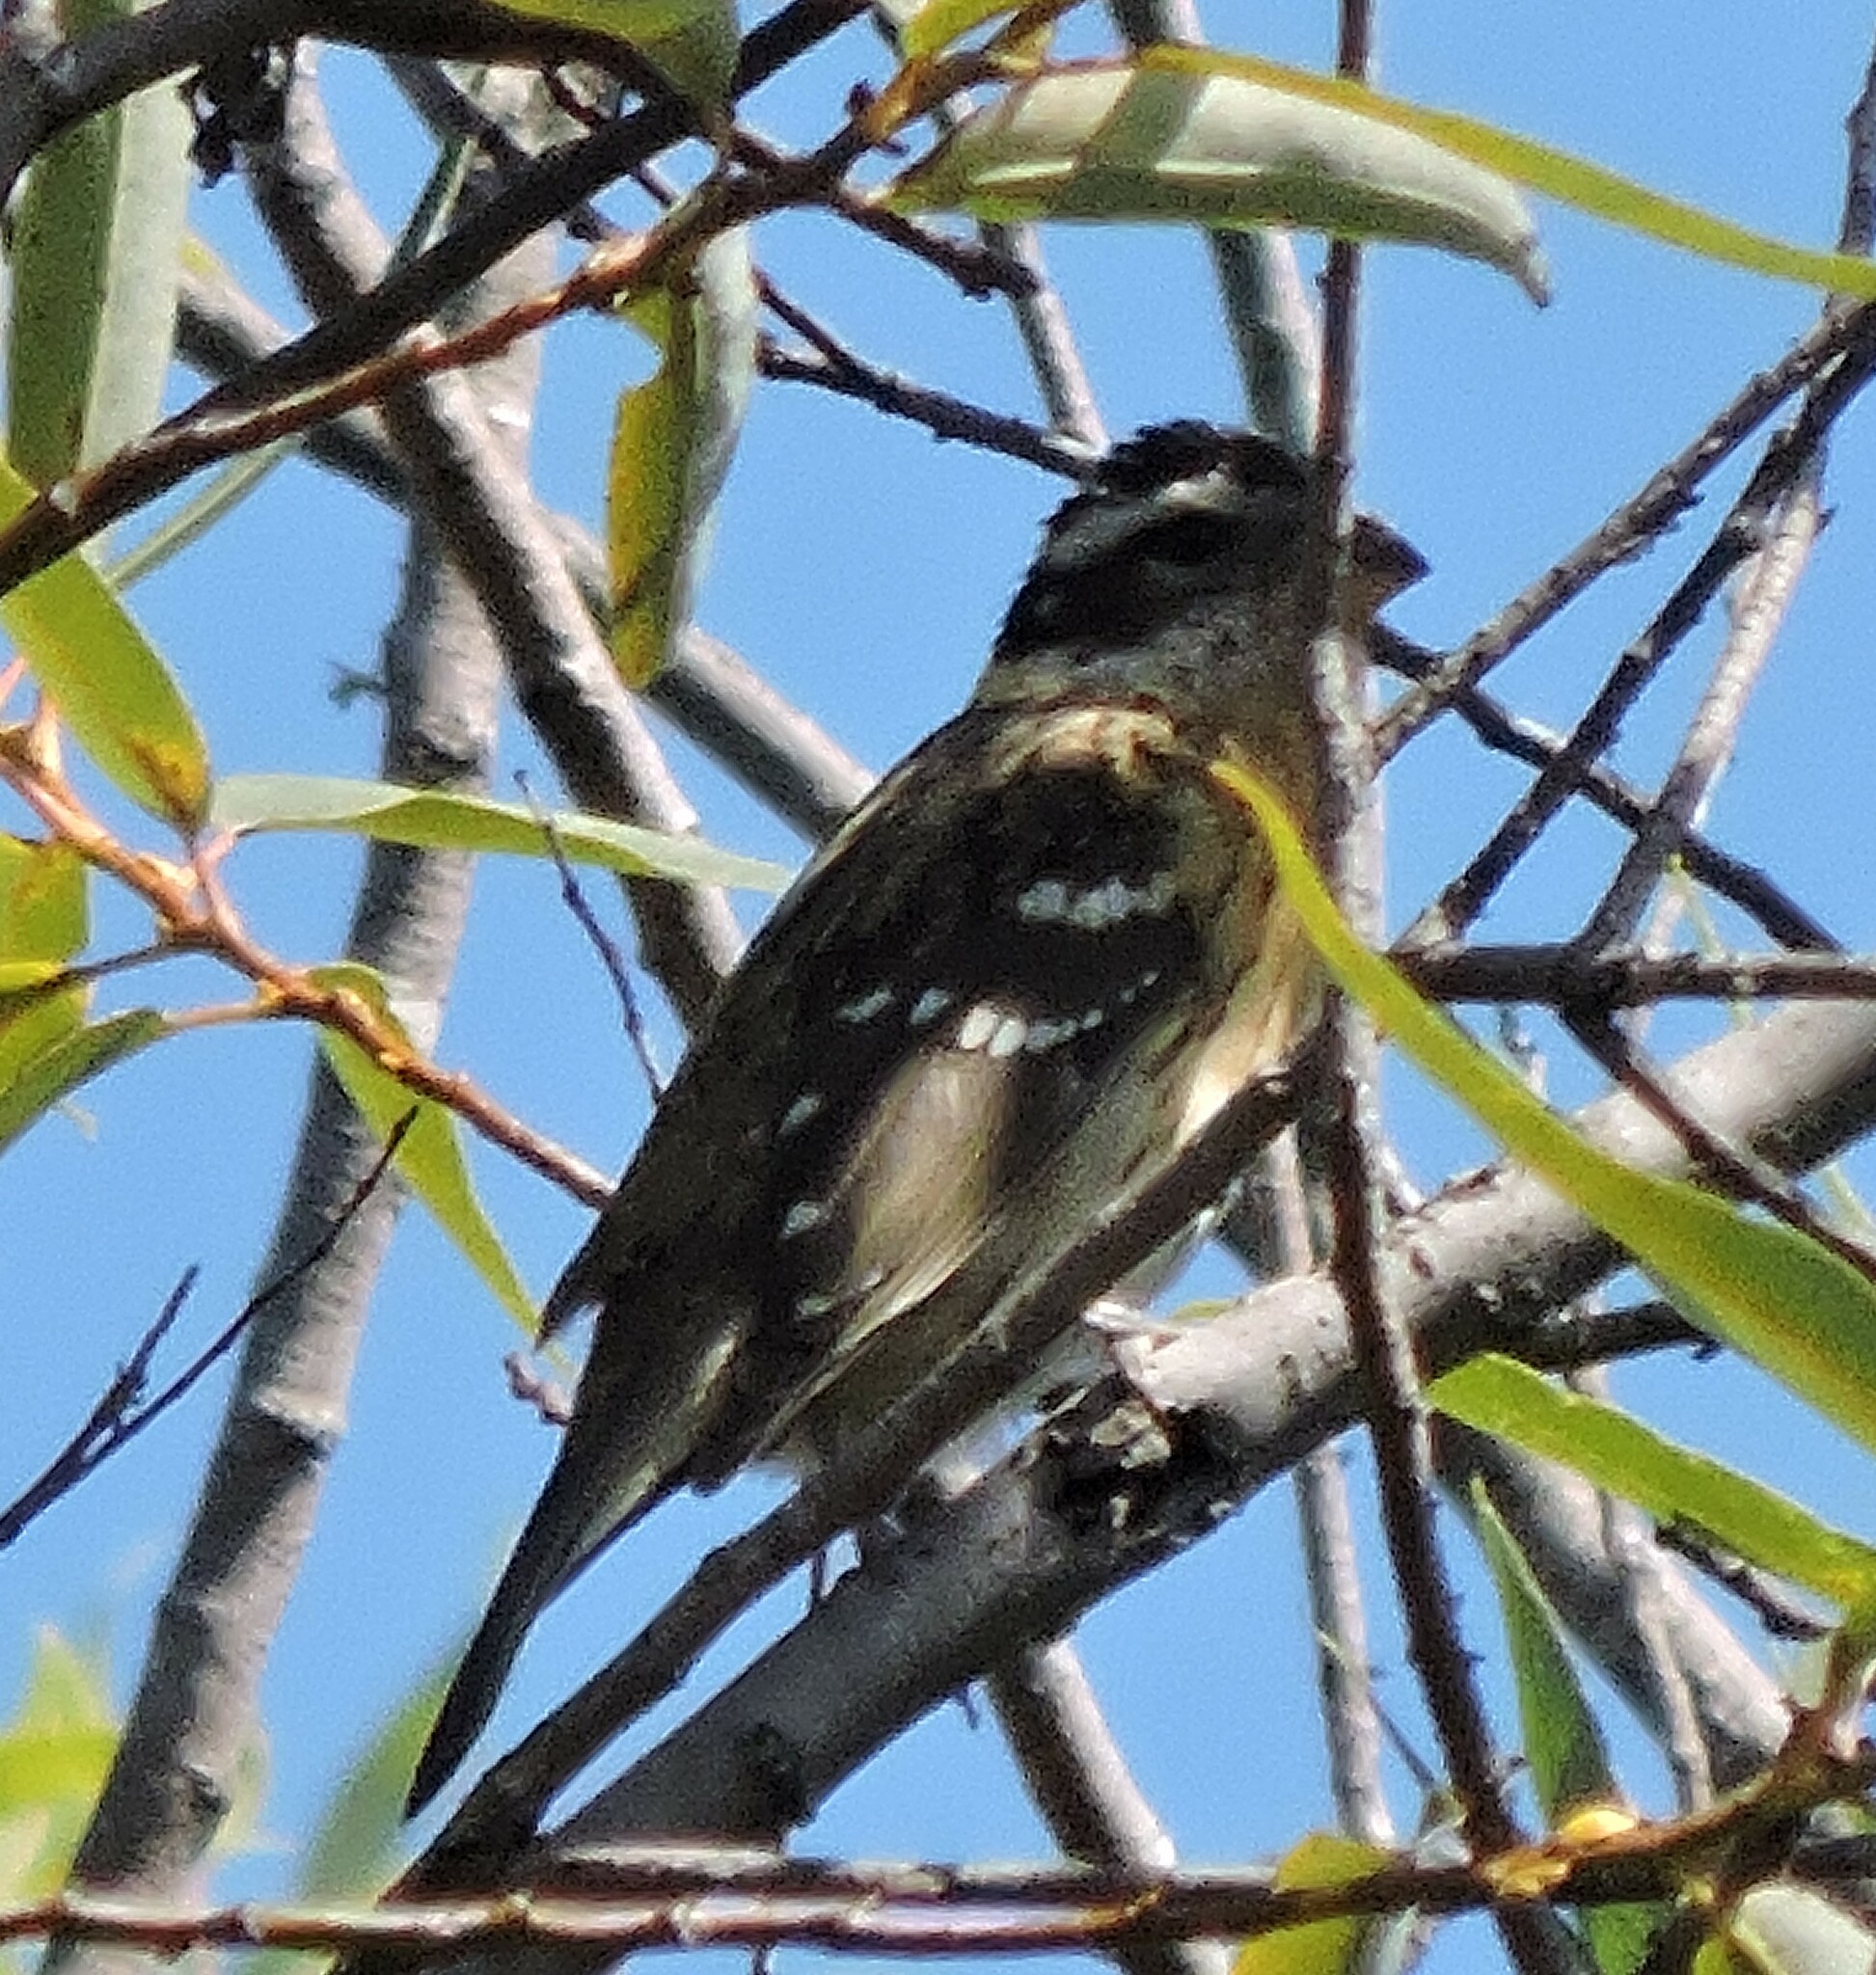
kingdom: Animalia
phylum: Chordata
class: Aves
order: Passeriformes
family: Cardinalidae
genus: Pheucticus
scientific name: Pheucticus melanocephalus
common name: Black-headed grosbeak
